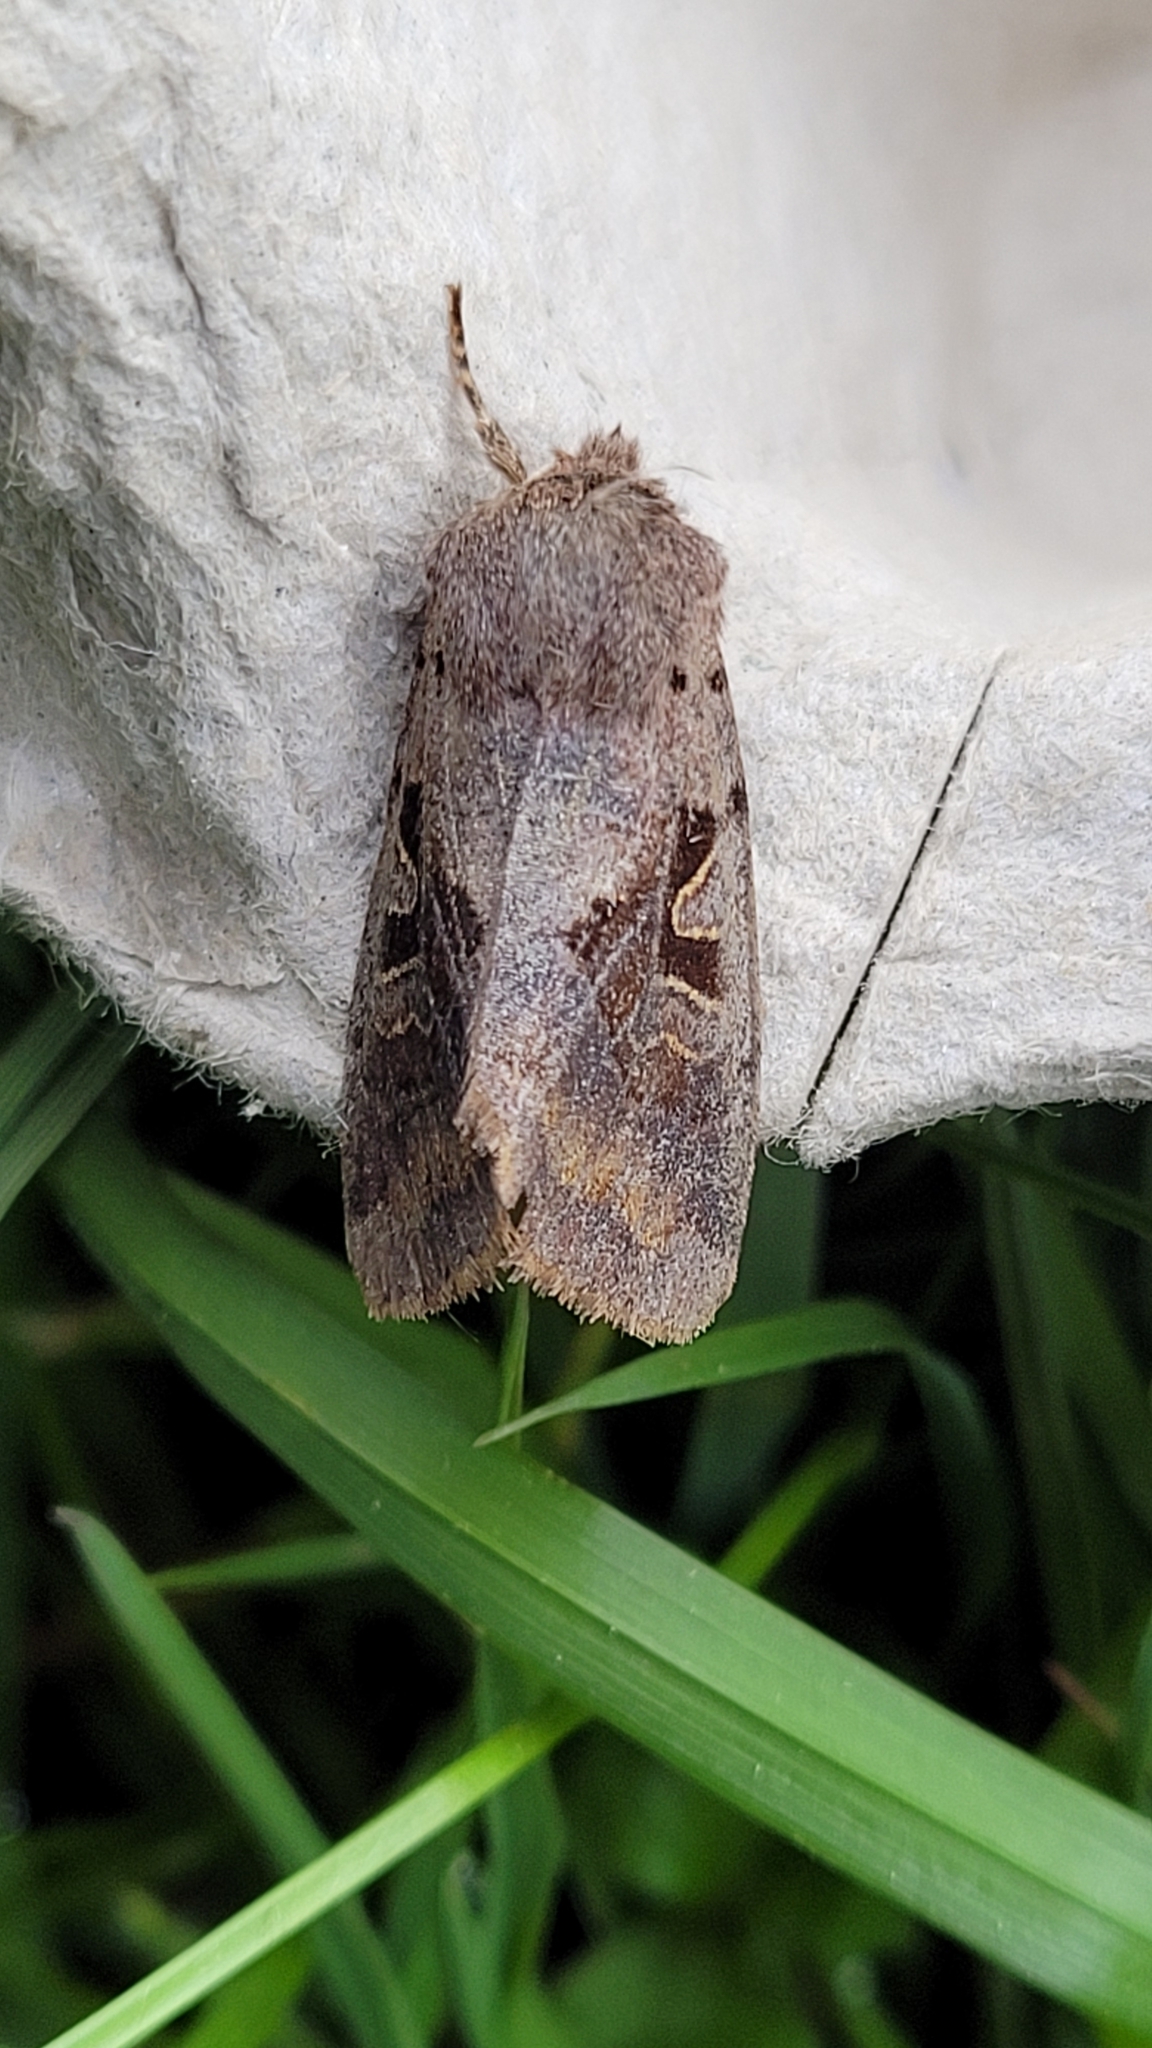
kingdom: Animalia
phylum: Arthropoda
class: Insecta
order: Lepidoptera
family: Noctuidae
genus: Orthosia
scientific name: Orthosia gothica
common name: Hebrew character
